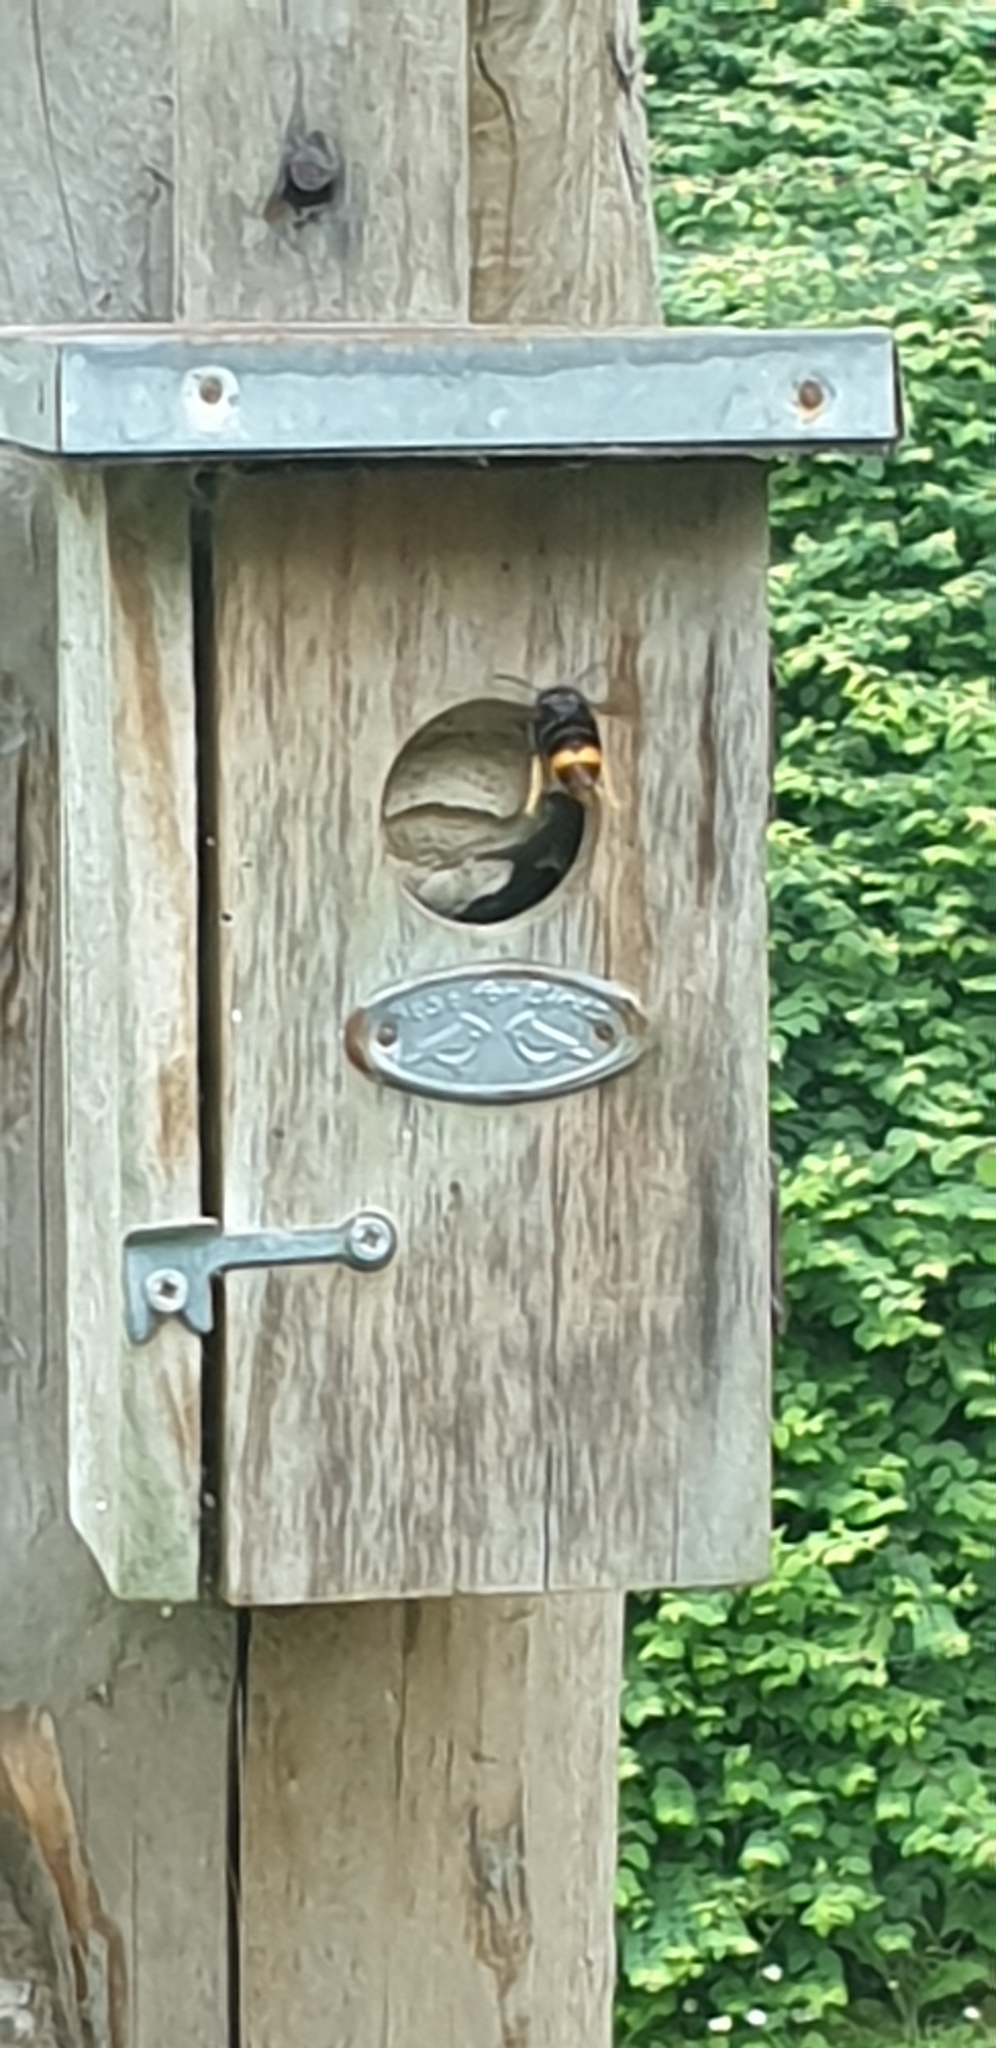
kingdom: Animalia
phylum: Arthropoda
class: Insecta
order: Hymenoptera
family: Vespidae
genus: Vespa
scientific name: Vespa velutina
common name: Asian hornet
